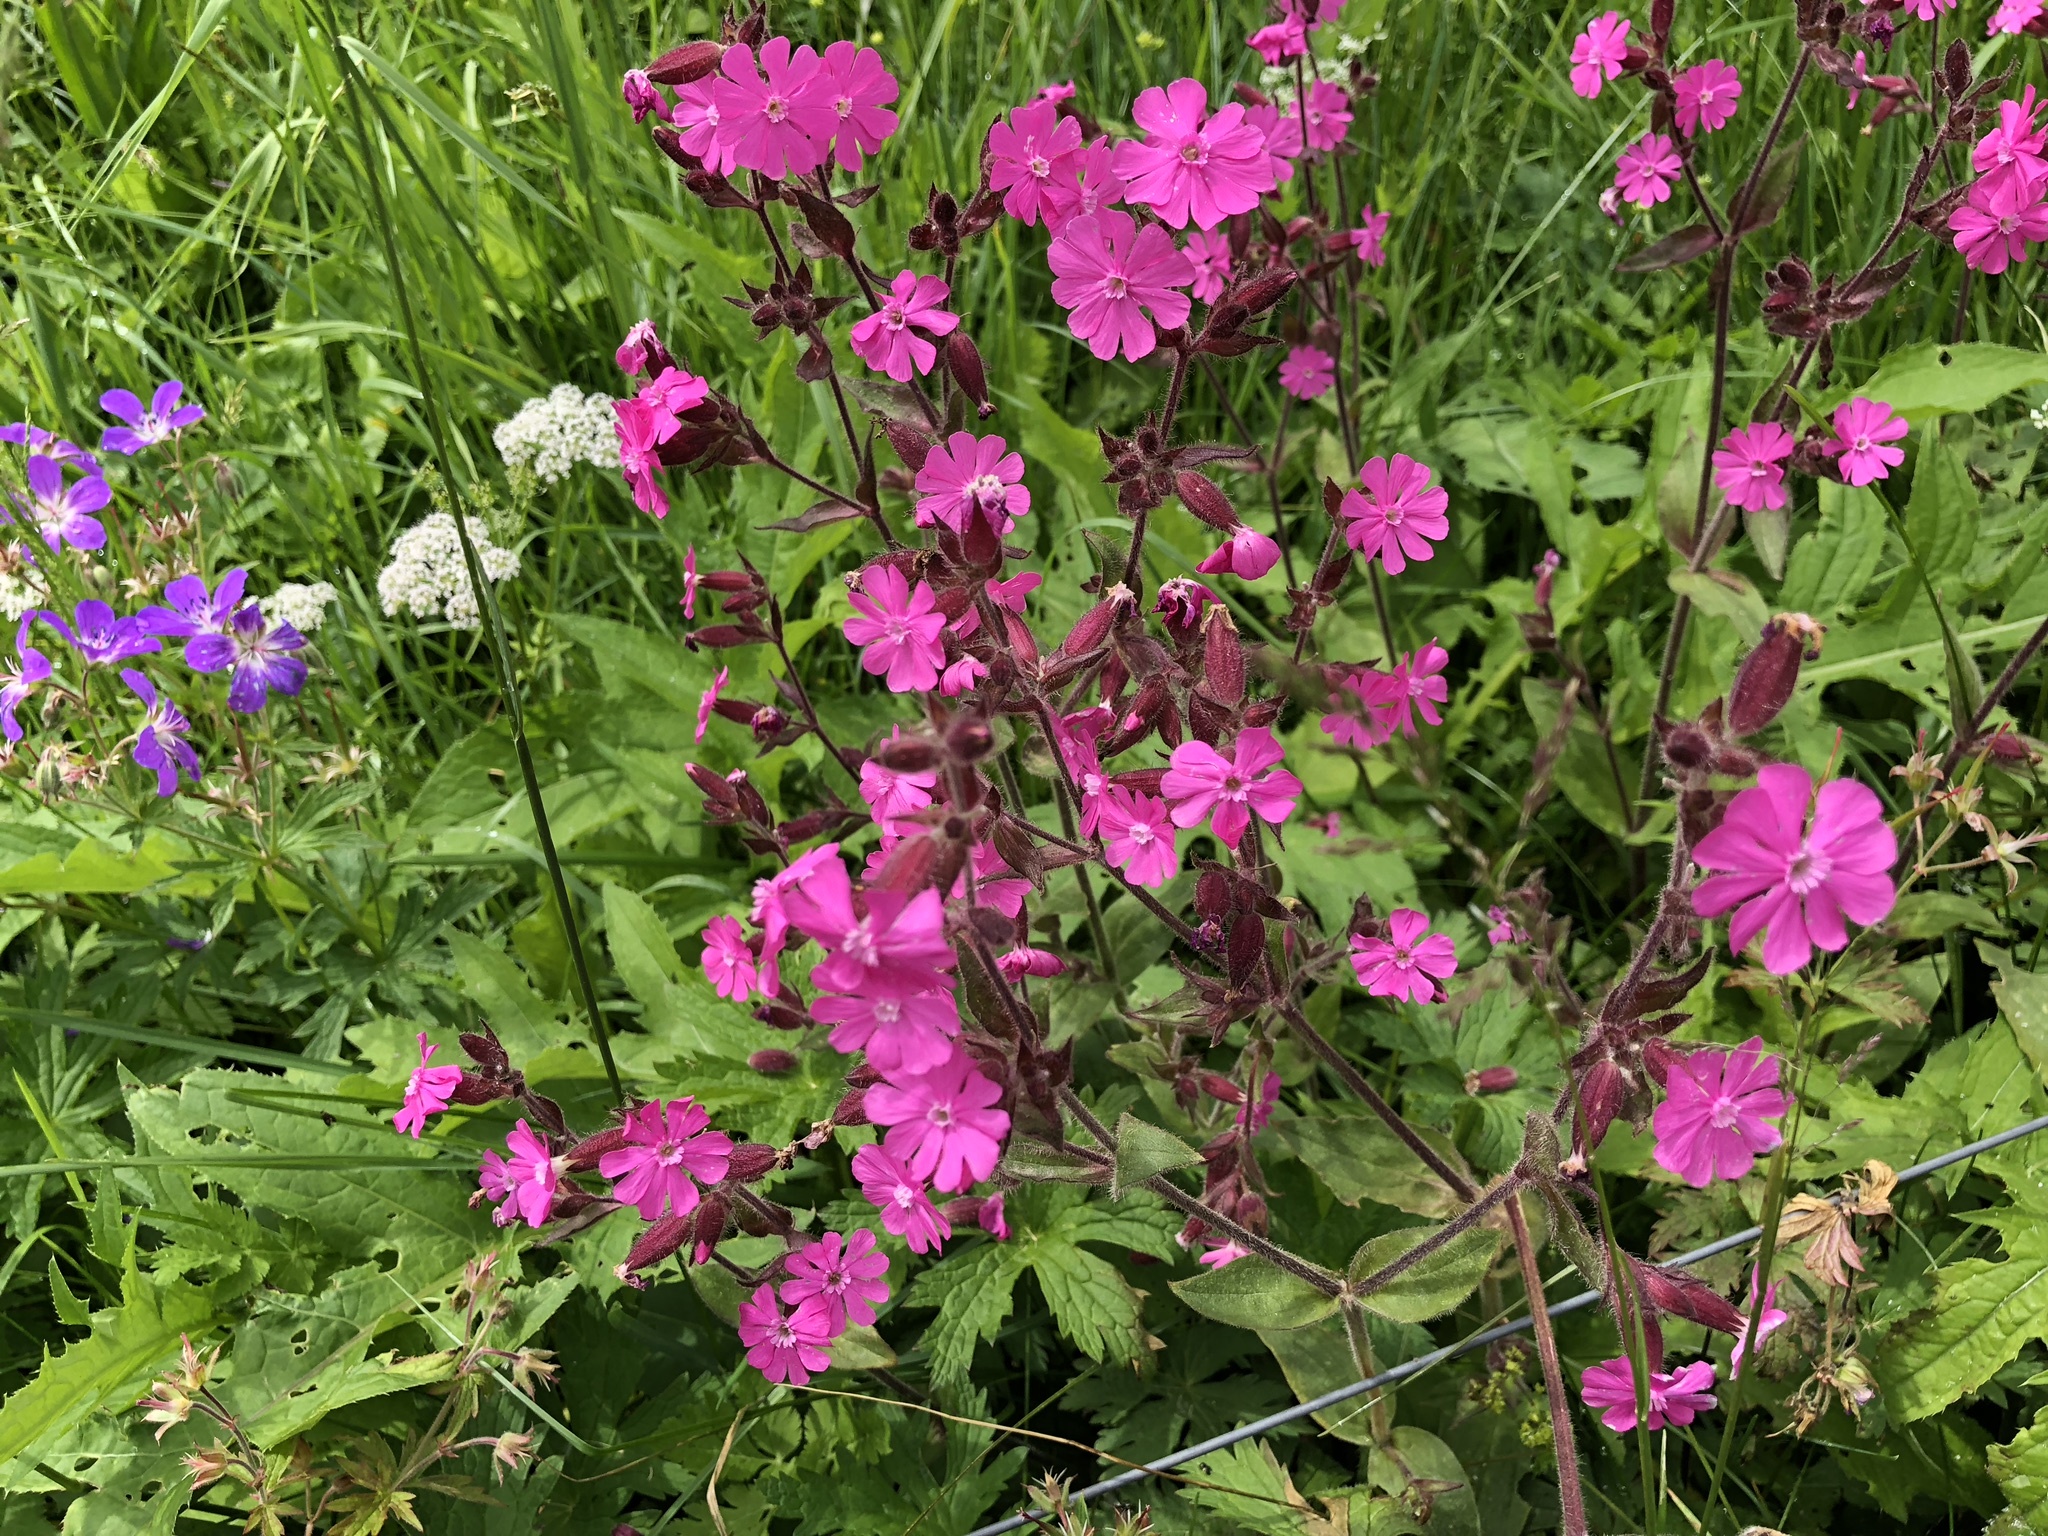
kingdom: Plantae
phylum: Tracheophyta
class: Magnoliopsida
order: Caryophyllales
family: Caryophyllaceae
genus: Silene
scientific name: Silene dioica
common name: Red campion
